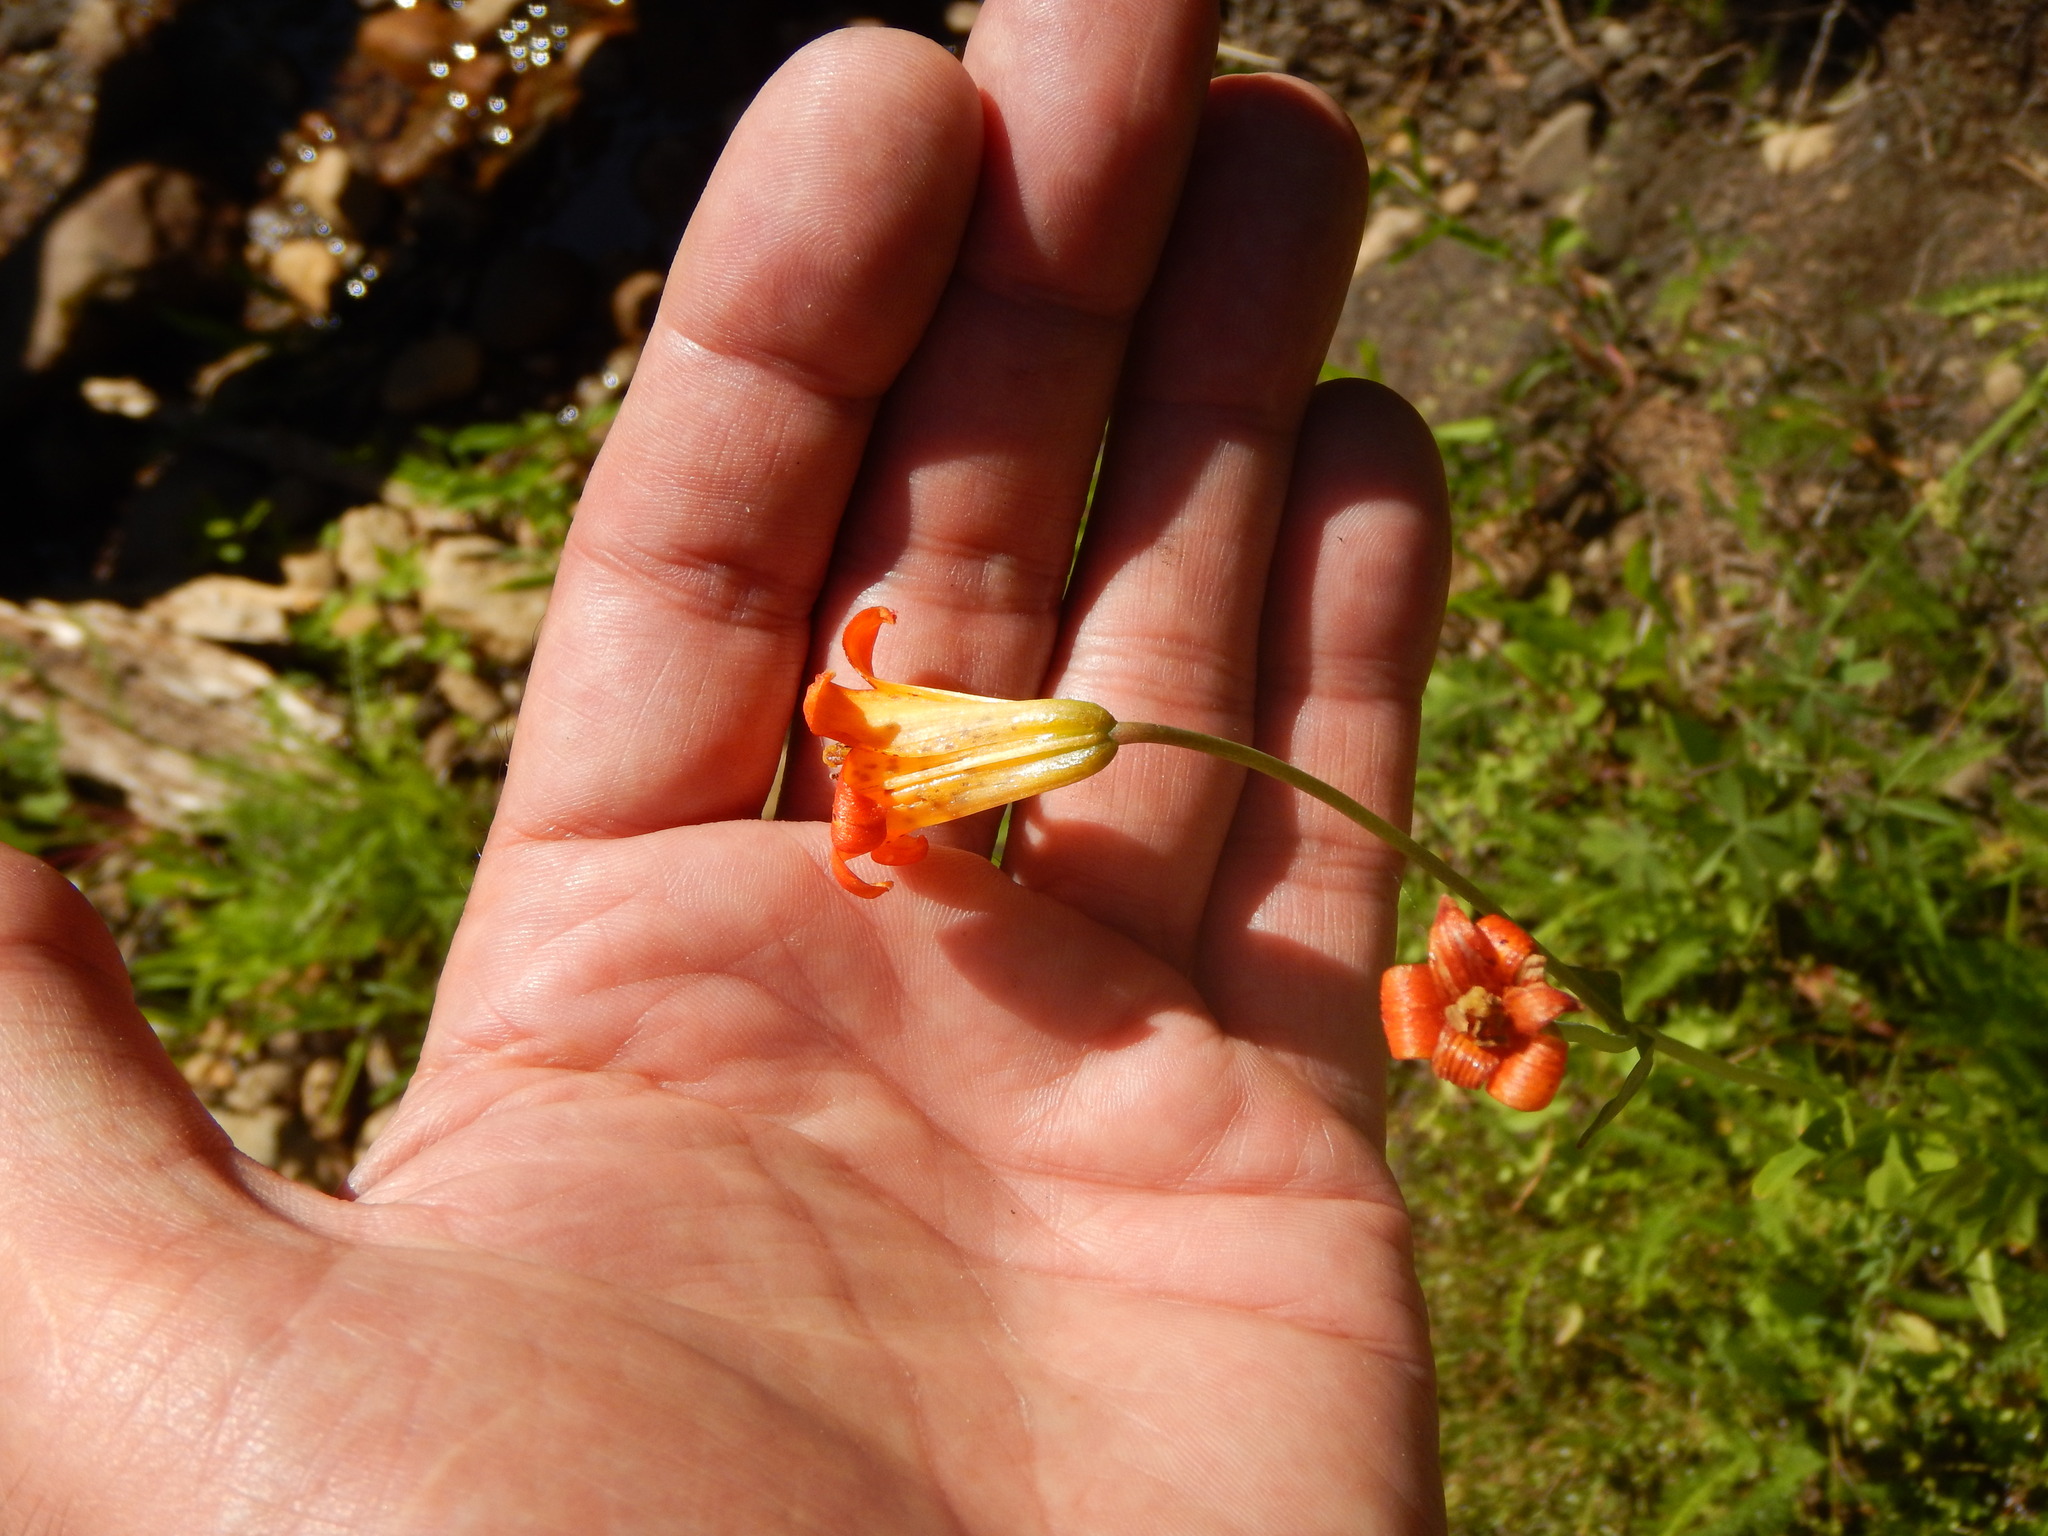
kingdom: Plantae
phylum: Tracheophyta
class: Liliopsida
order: Liliales
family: Liliaceae
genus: Lilium
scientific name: Lilium parvum
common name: Alpine lily
